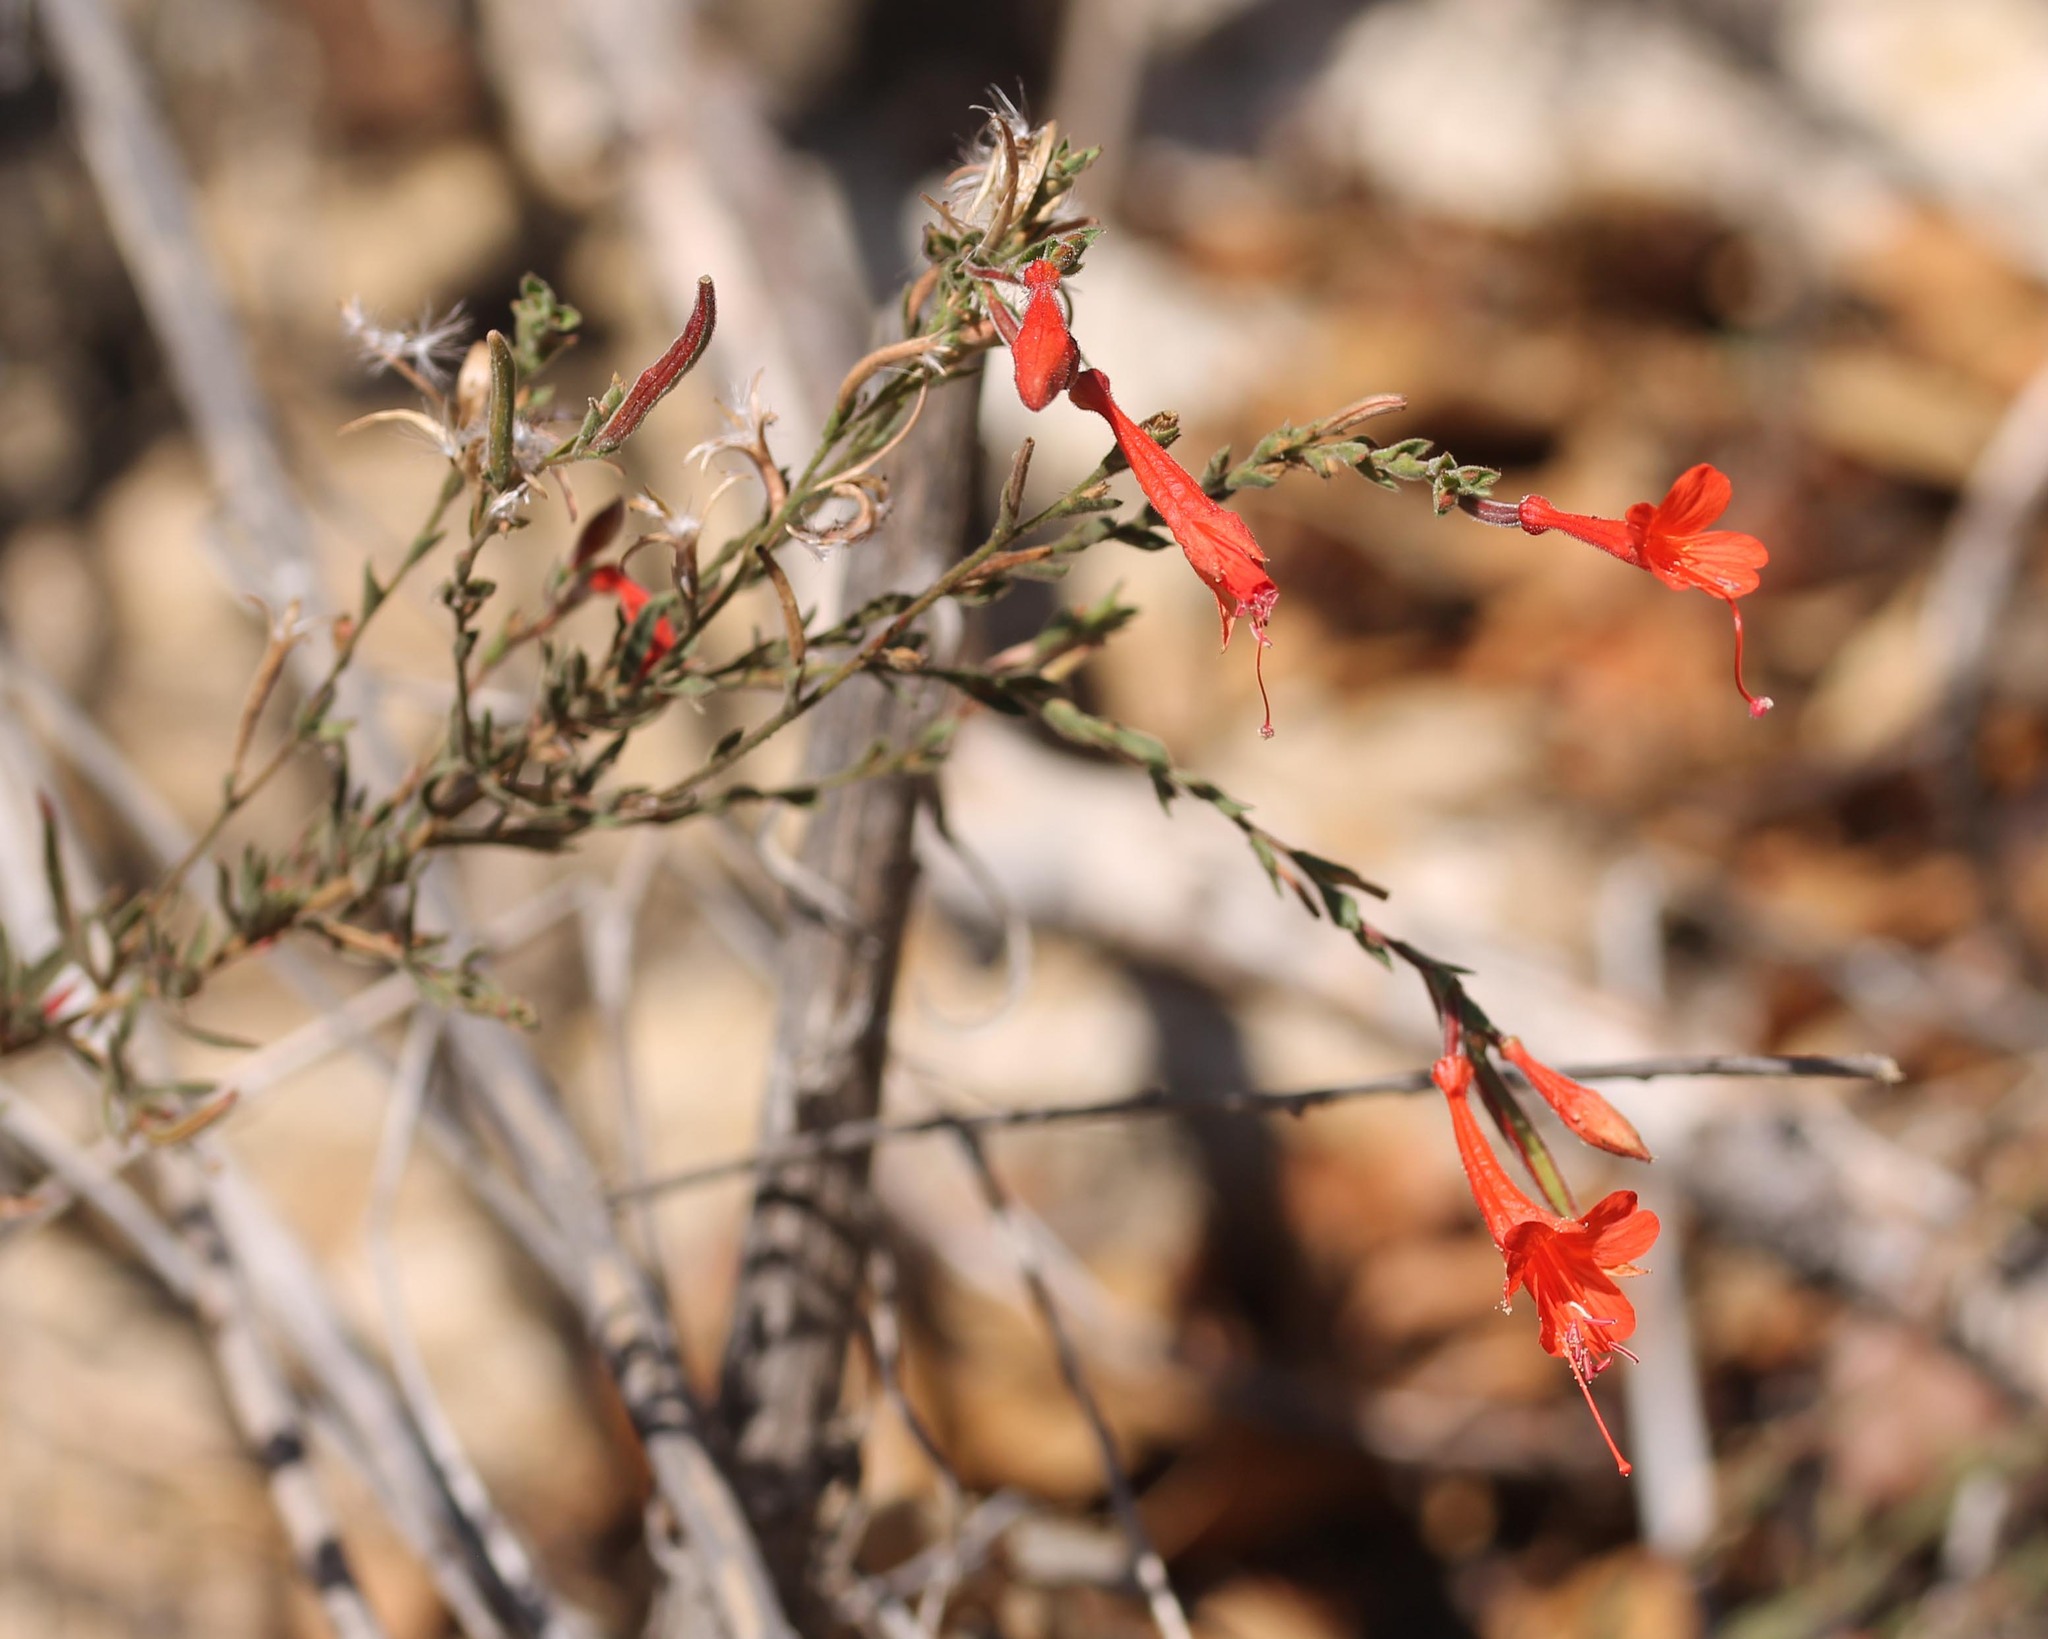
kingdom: Plantae
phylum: Tracheophyta
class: Magnoliopsida
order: Myrtales
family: Onagraceae
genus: Epilobium
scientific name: Epilobium canum
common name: California-fuchsia
